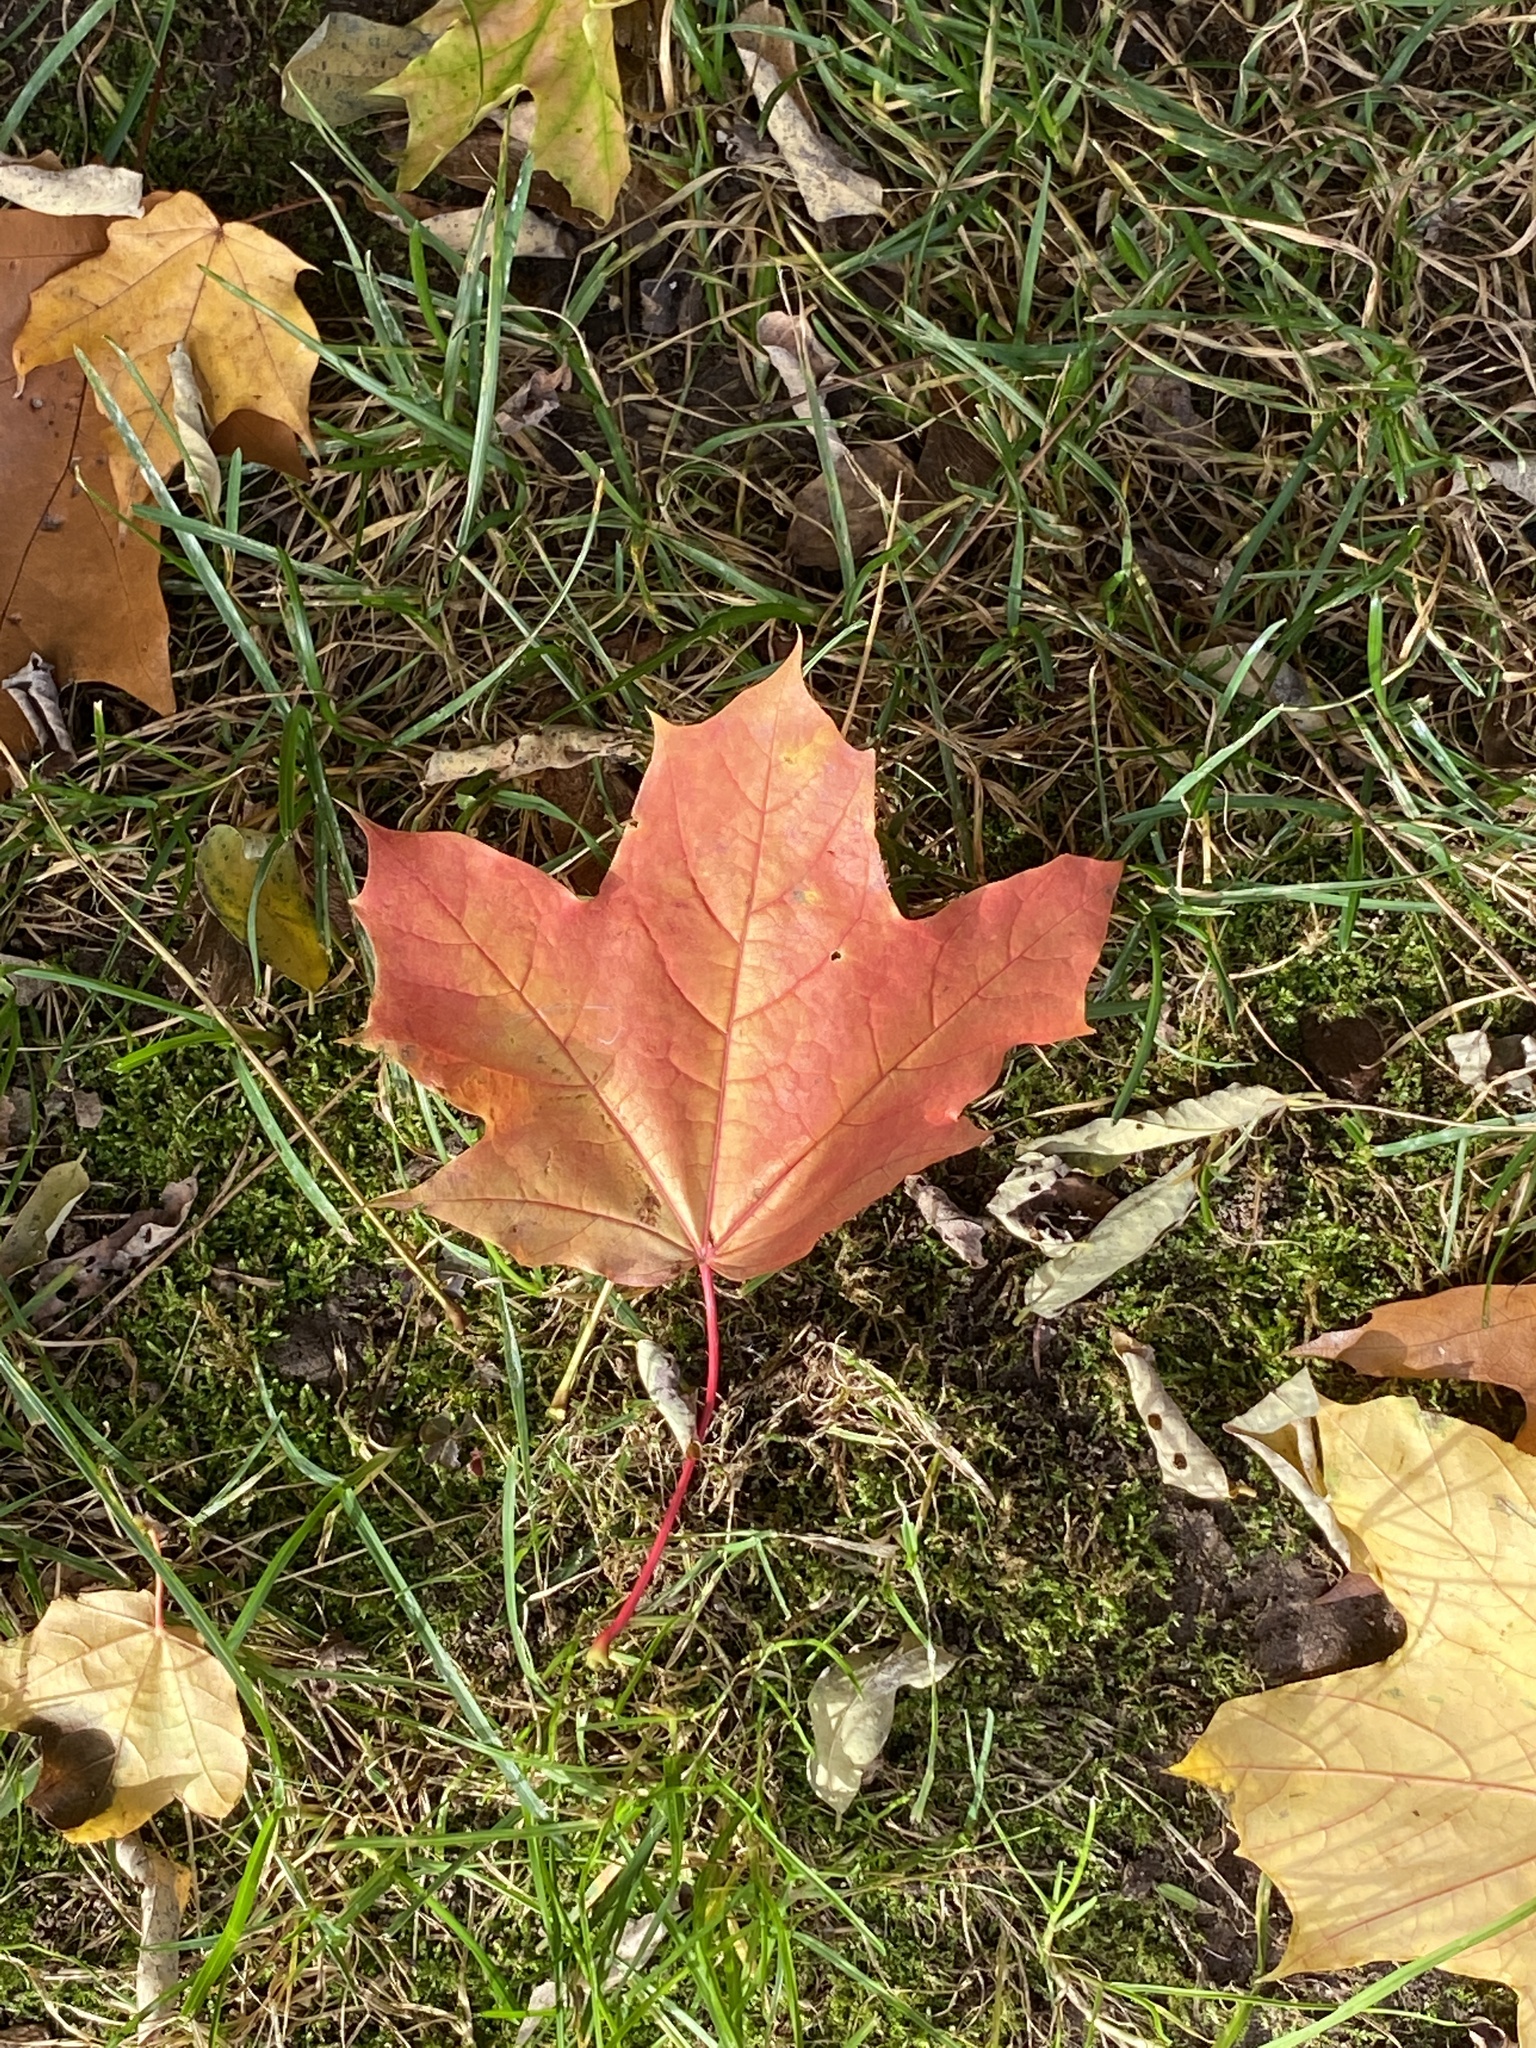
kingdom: Plantae
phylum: Tracheophyta
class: Magnoliopsida
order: Sapindales
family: Sapindaceae
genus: Acer
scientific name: Acer platanoides
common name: Norway maple
